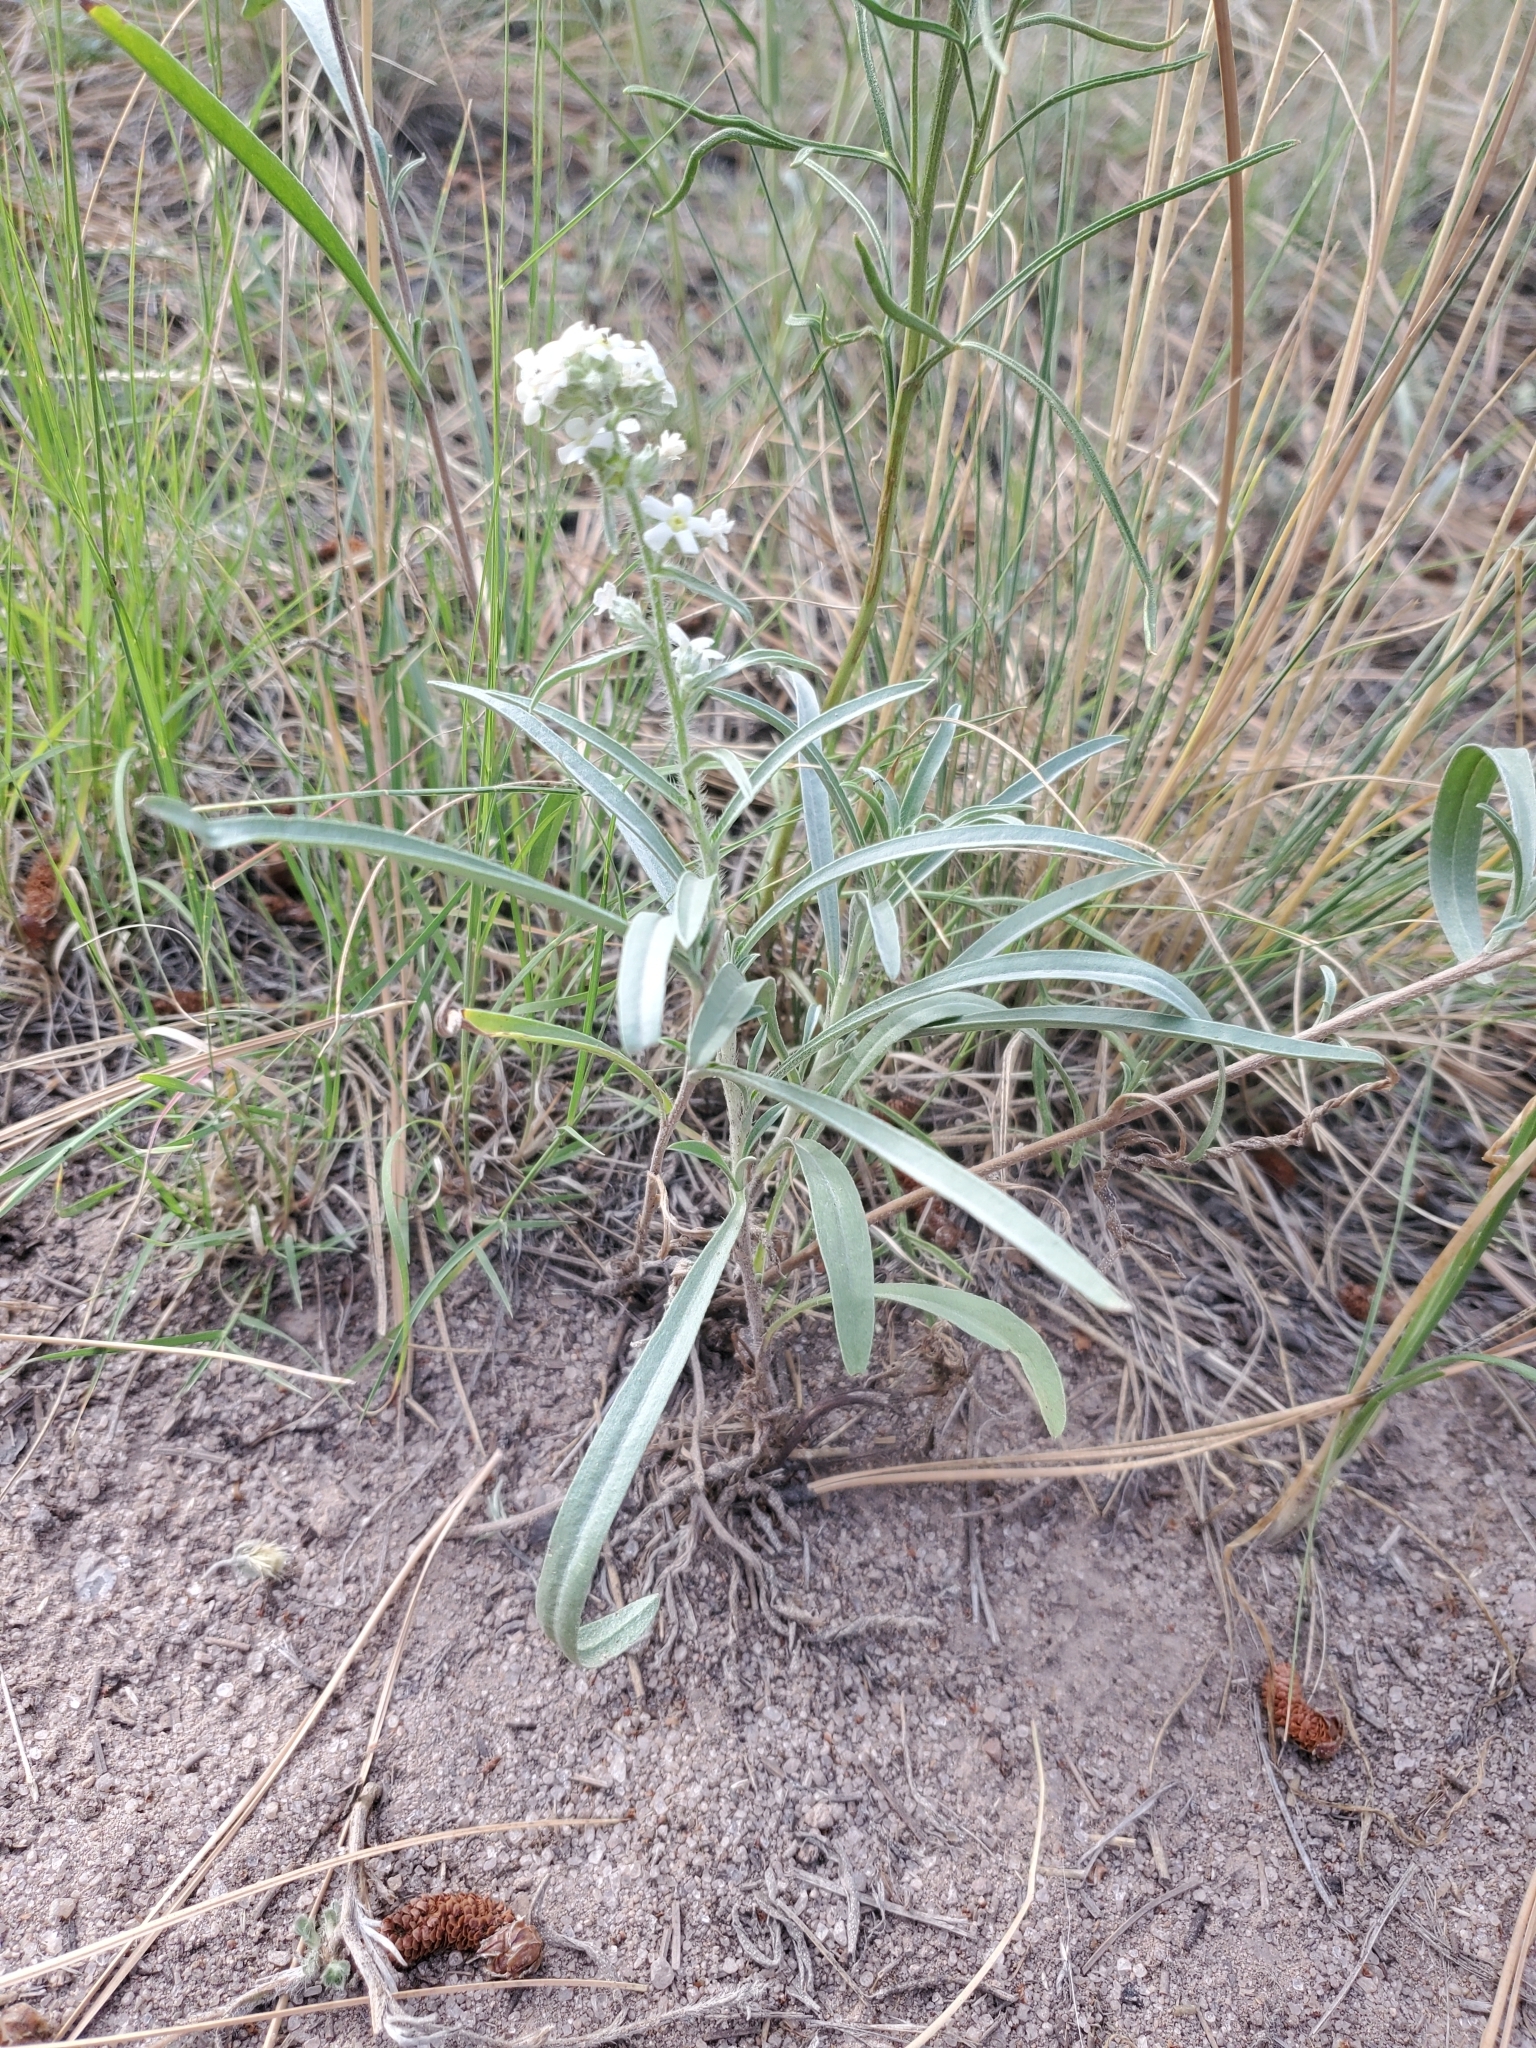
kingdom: Plantae
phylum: Tracheophyta
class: Magnoliopsida
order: Boraginales
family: Boraginaceae
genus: Oreocarya
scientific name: Oreocarya suffruticosa
